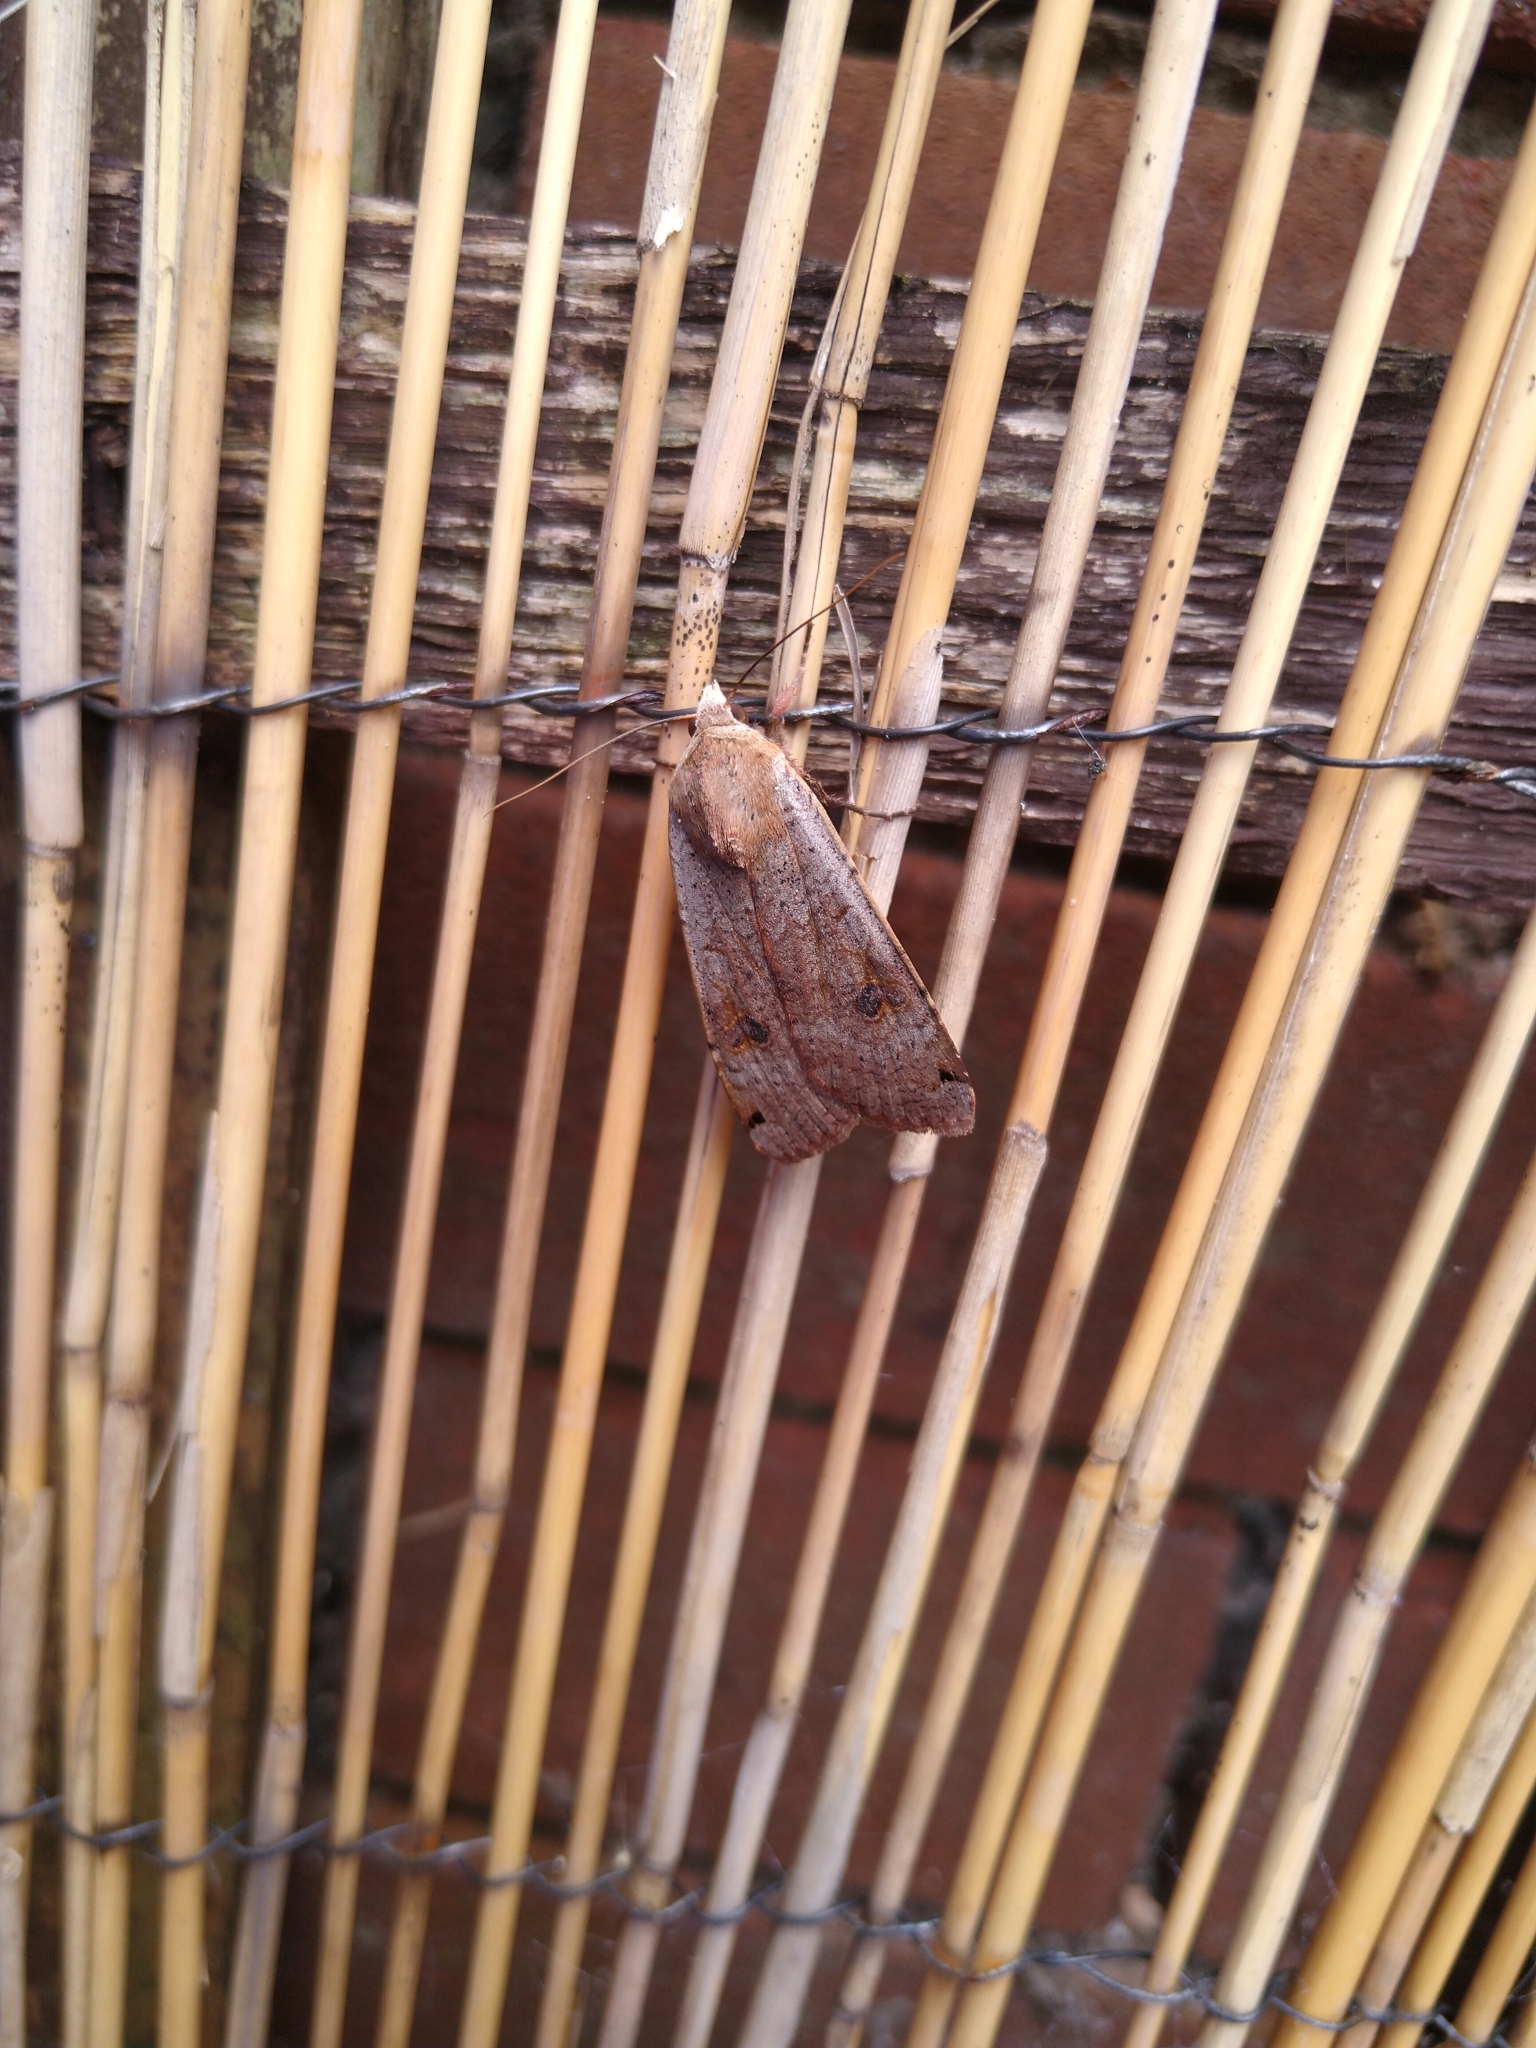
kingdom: Animalia
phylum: Arthropoda
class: Insecta
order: Lepidoptera
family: Noctuidae
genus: Noctua
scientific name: Noctua pronuba
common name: Large yellow underwing
